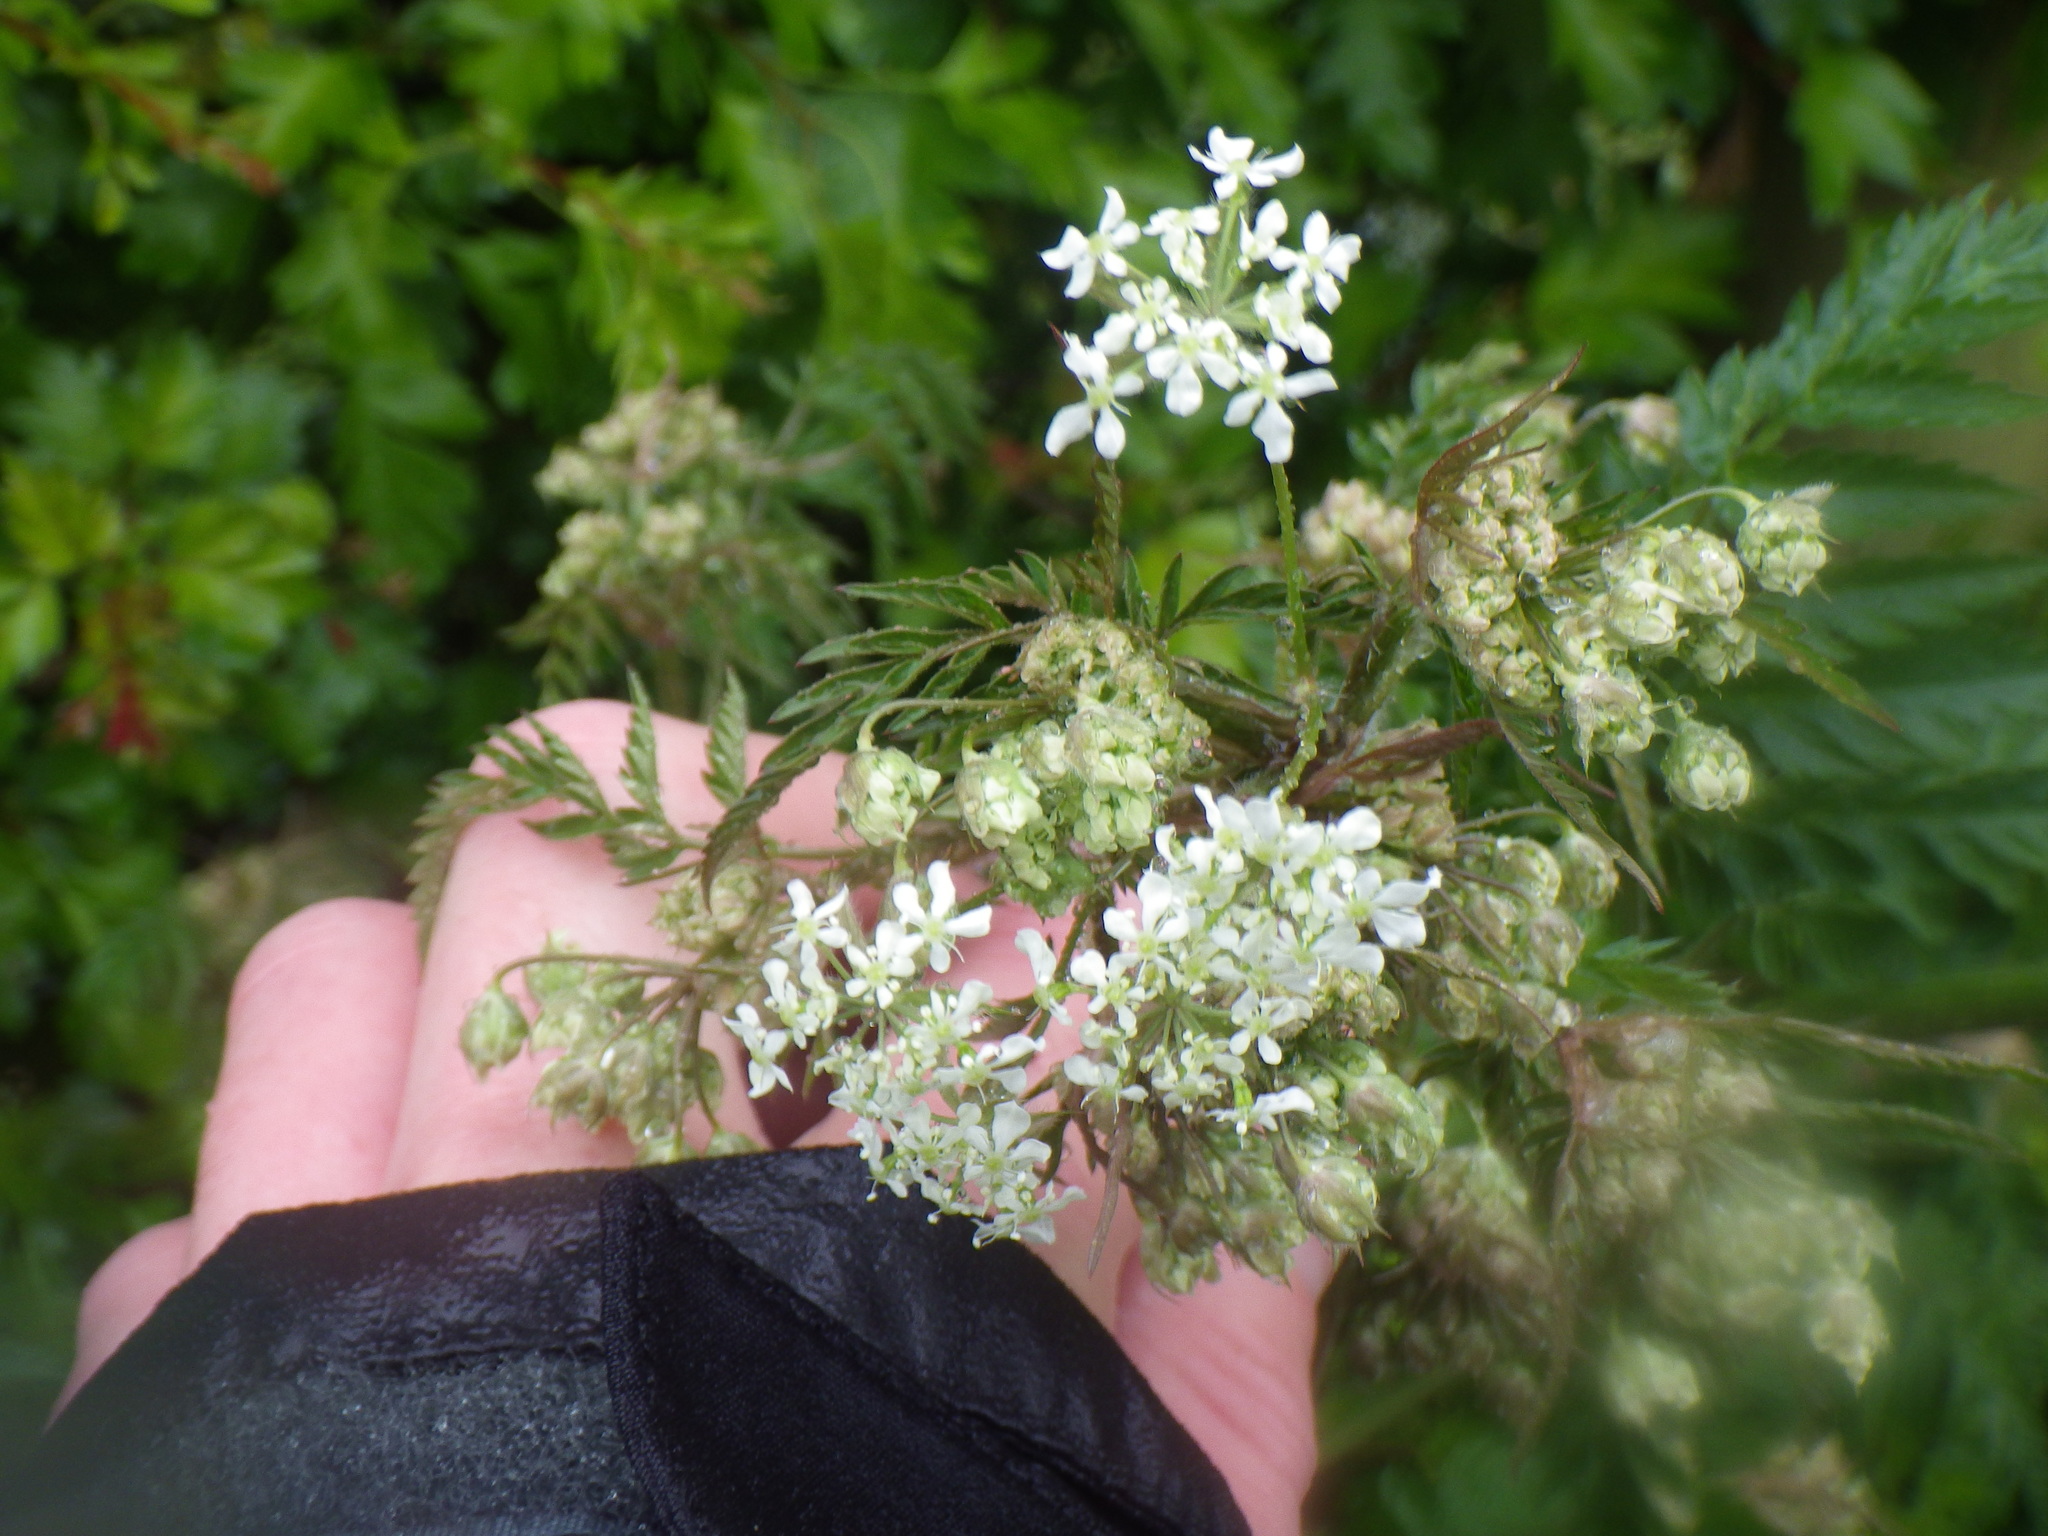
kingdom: Plantae
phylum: Tracheophyta
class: Magnoliopsida
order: Apiales
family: Apiaceae
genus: Anthriscus
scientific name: Anthriscus sylvestris
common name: Cow parsley
